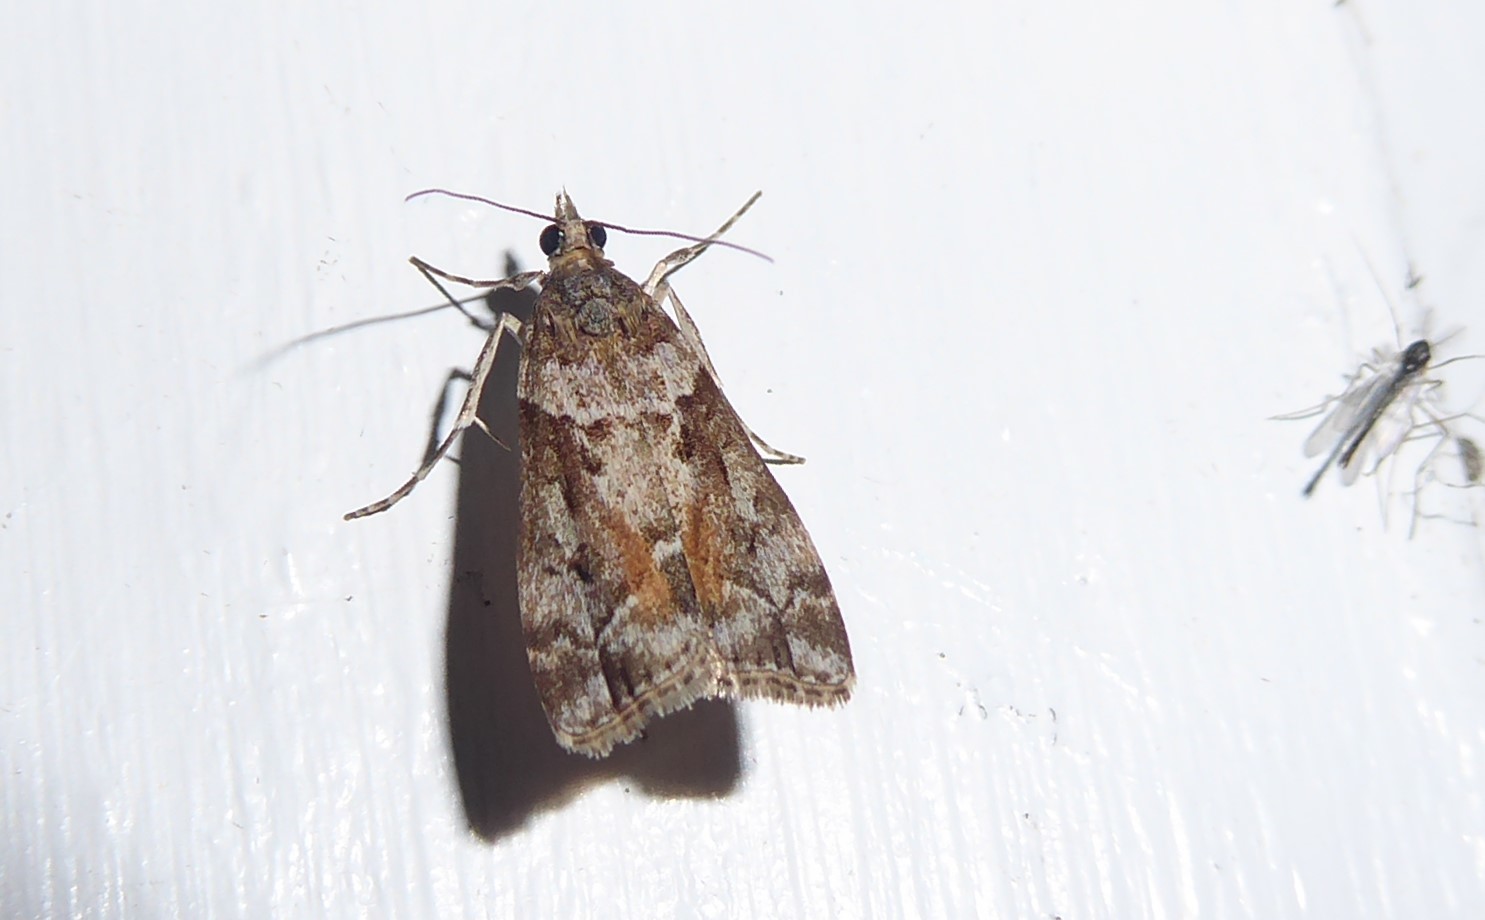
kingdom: Animalia
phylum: Arthropoda
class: Insecta
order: Lepidoptera
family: Crambidae
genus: Eudonia
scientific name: Eudonia submarginalis
